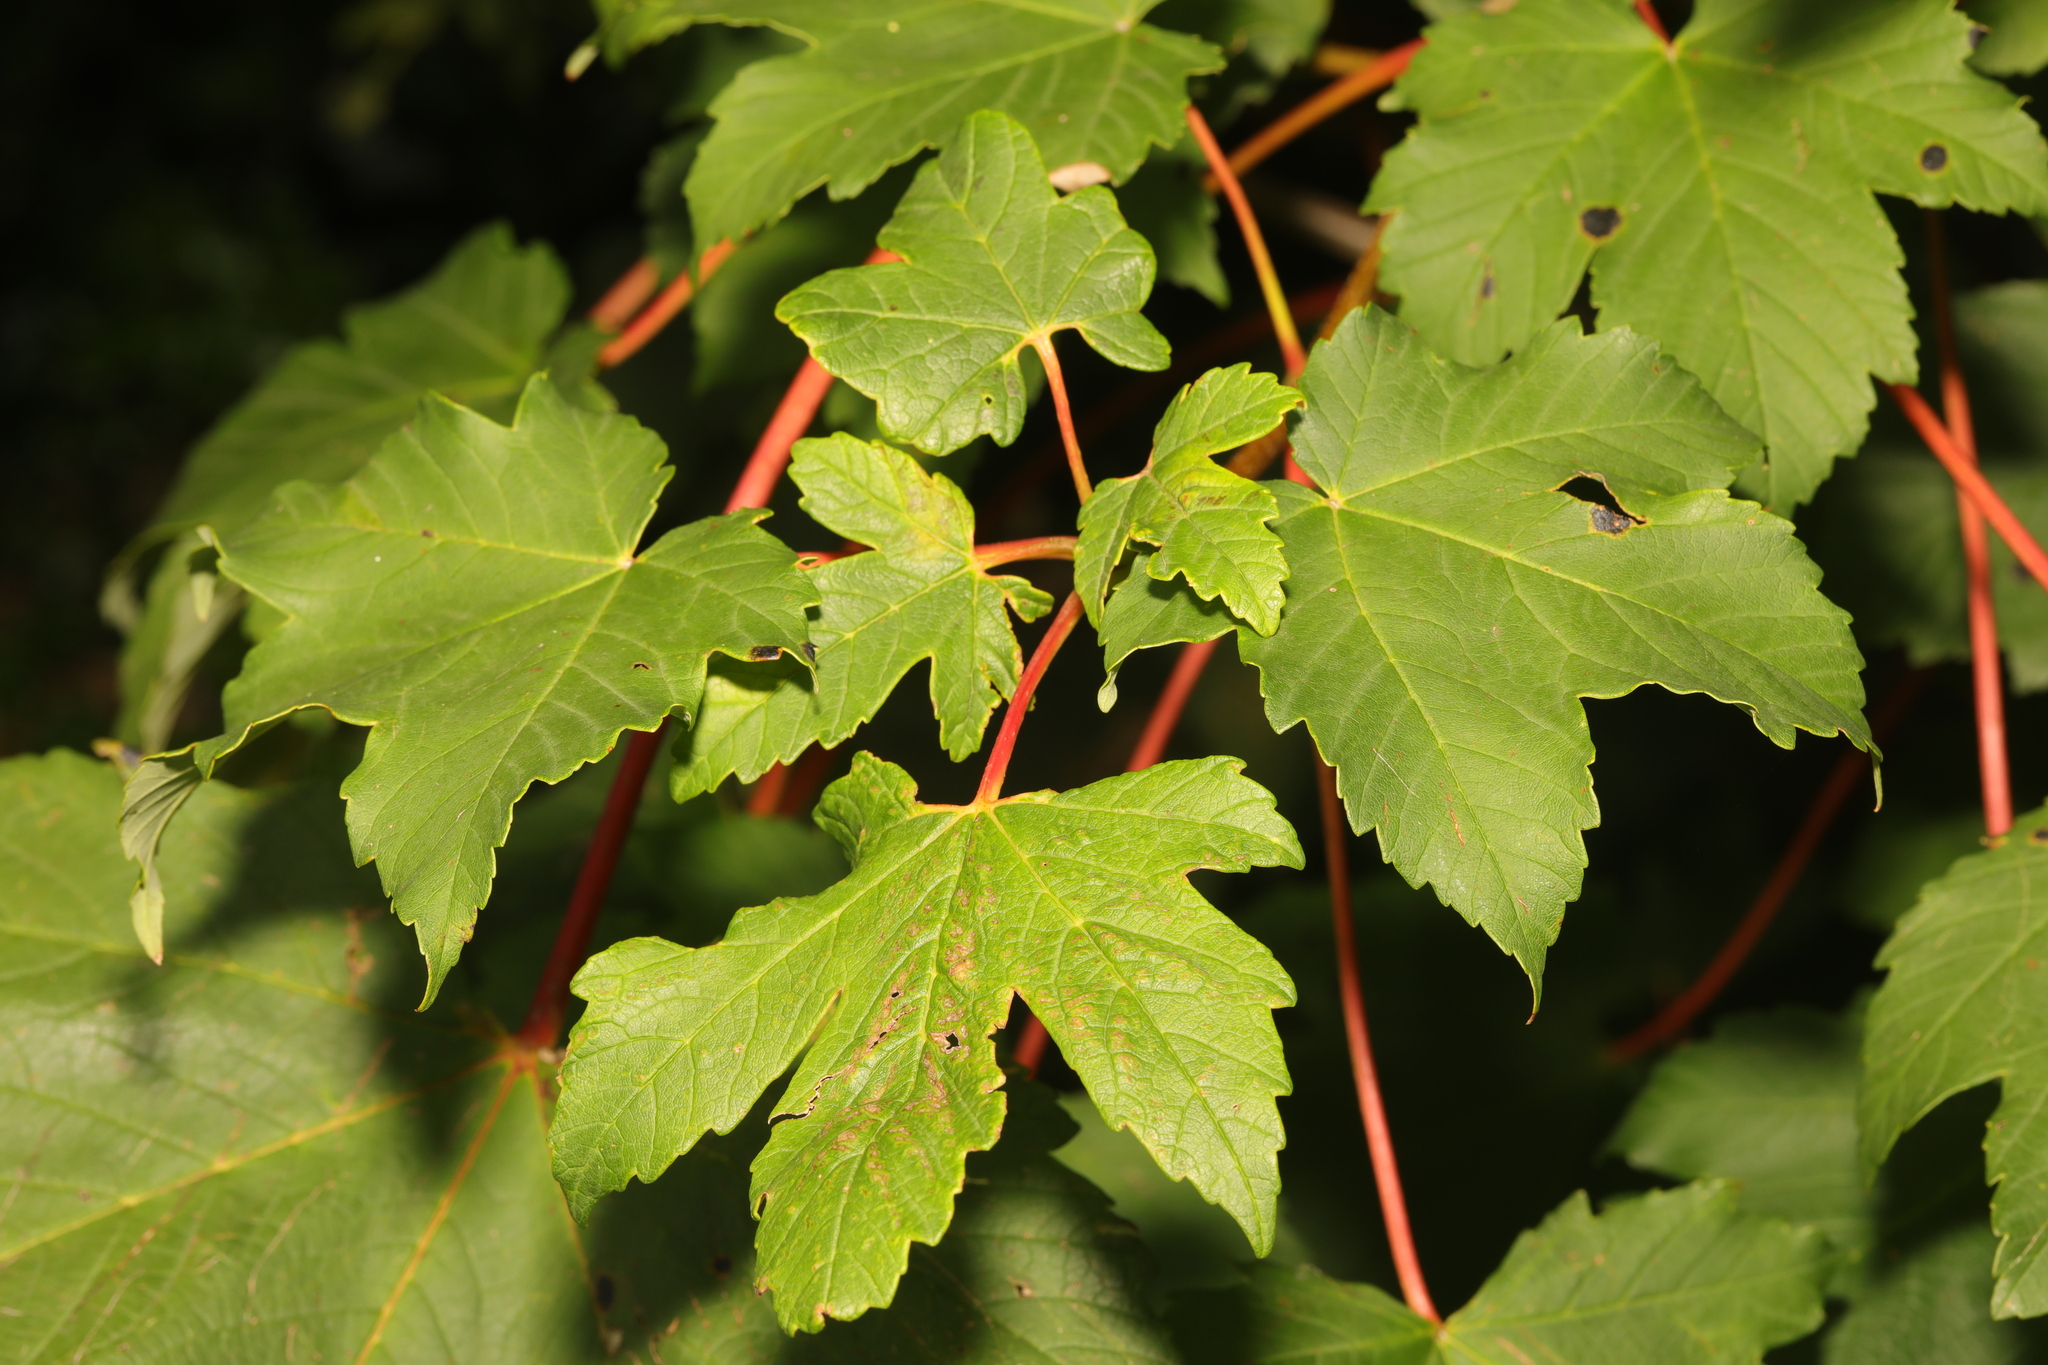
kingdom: Plantae
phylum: Tracheophyta
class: Magnoliopsida
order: Sapindales
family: Sapindaceae
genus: Acer
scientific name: Acer pseudoplatanus
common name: Sycamore
